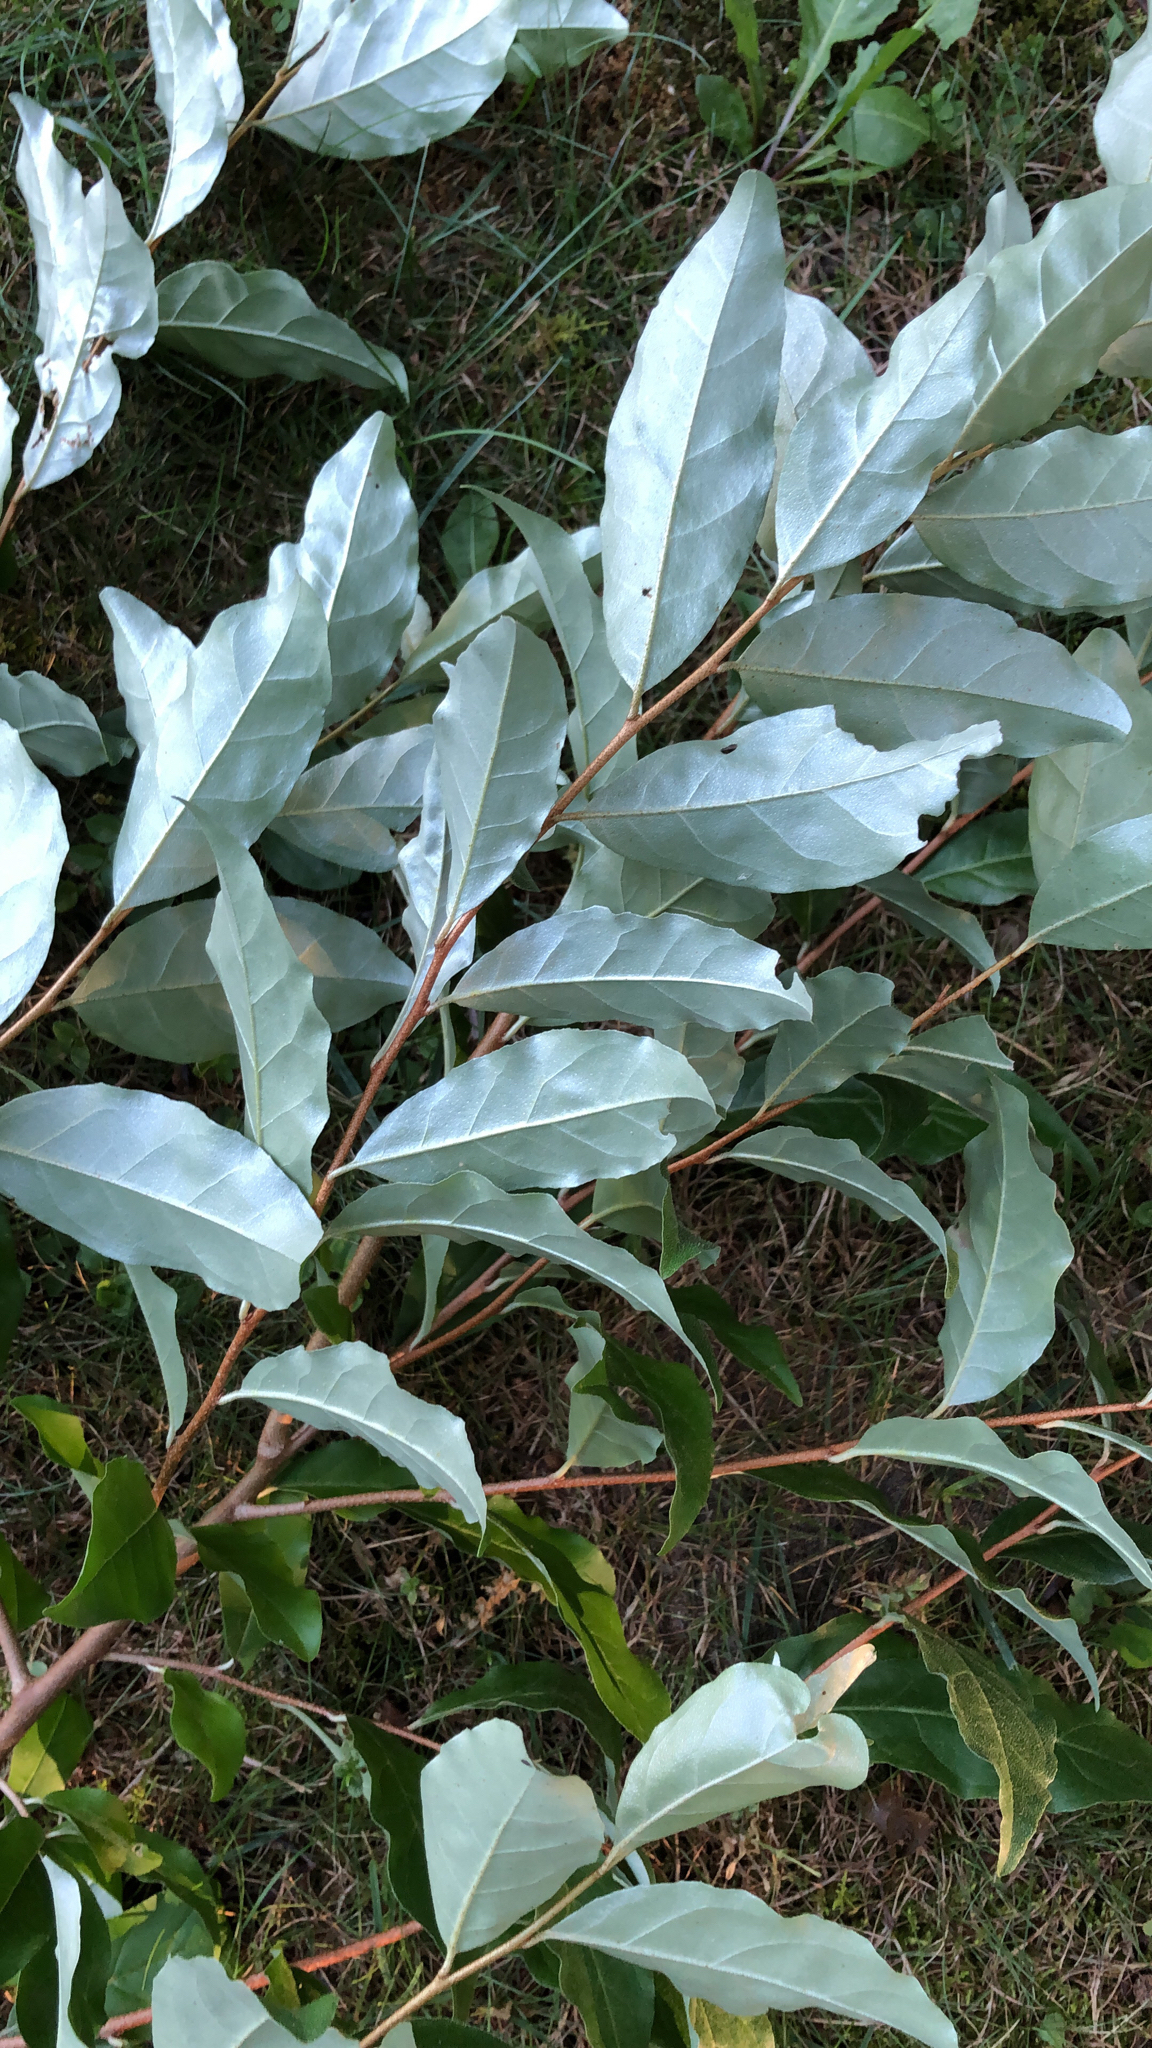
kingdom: Plantae
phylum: Tracheophyta
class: Magnoliopsida
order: Rosales
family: Elaeagnaceae
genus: Elaeagnus
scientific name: Elaeagnus umbellata
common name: Autumn olive
